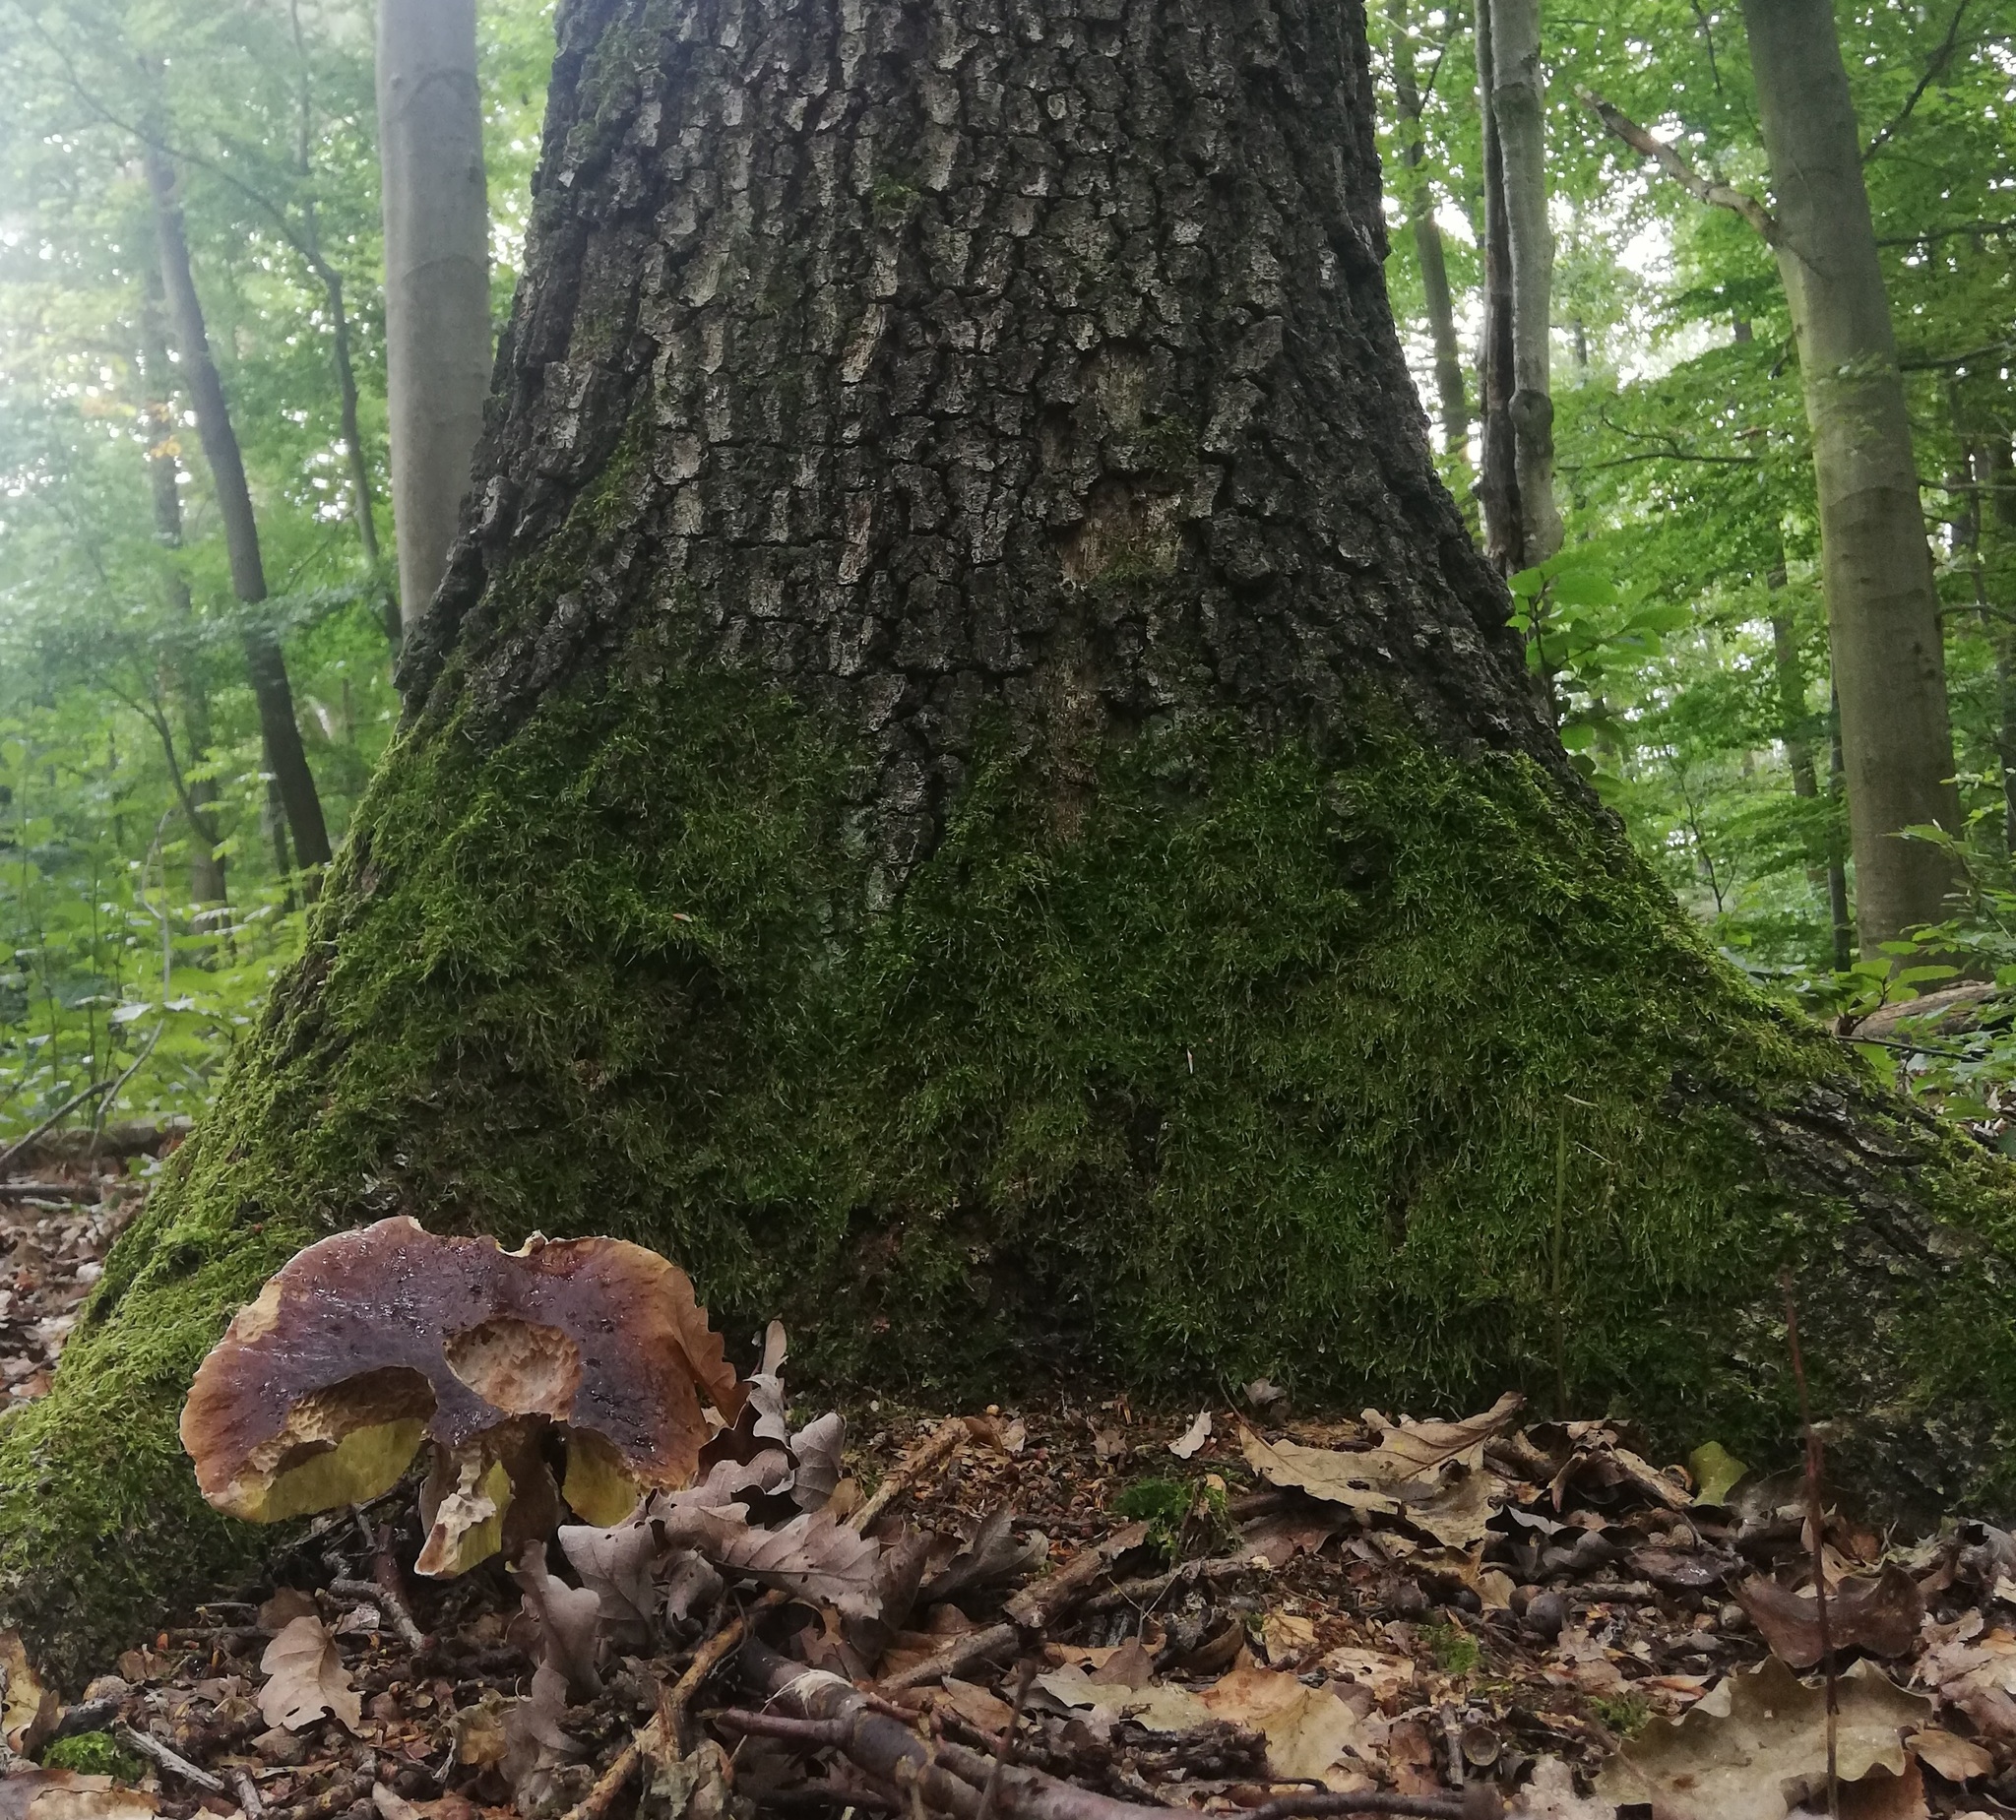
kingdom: Fungi
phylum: Basidiomycota
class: Agaricomycetes
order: Boletales
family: Boletaceae
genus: Boletus
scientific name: Boletus edulis
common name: Cep
